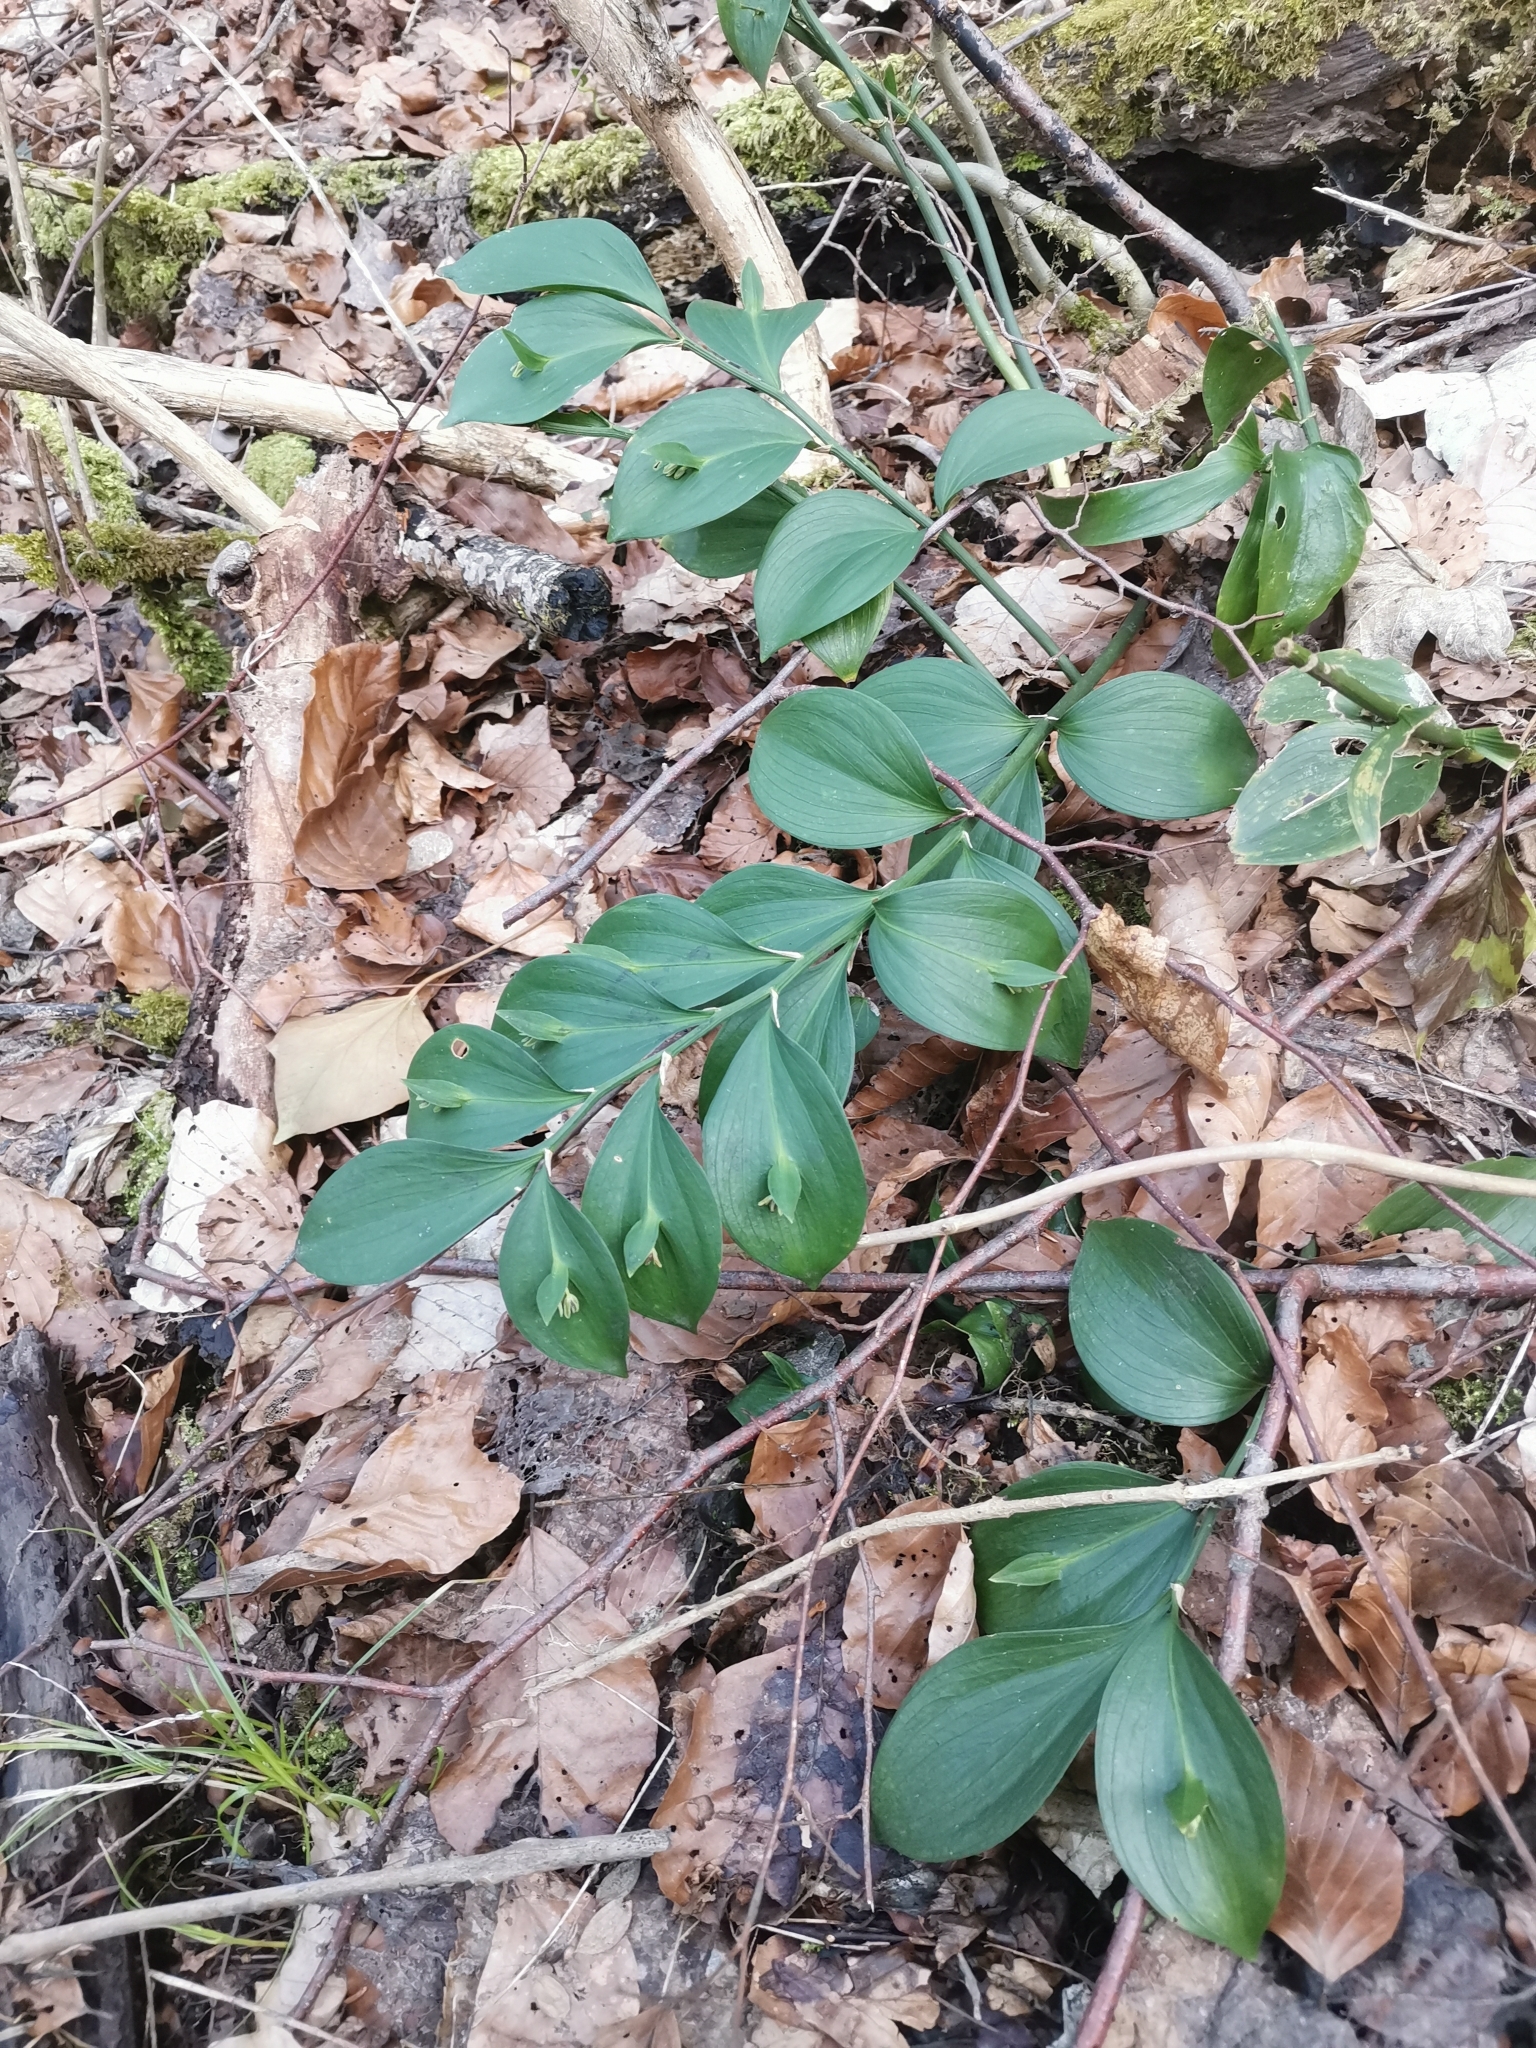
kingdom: Plantae
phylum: Tracheophyta
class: Liliopsida
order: Asparagales
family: Asparagaceae
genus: Ruscus
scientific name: Ruscus hypoglossum
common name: Spineless butcher's-broom
